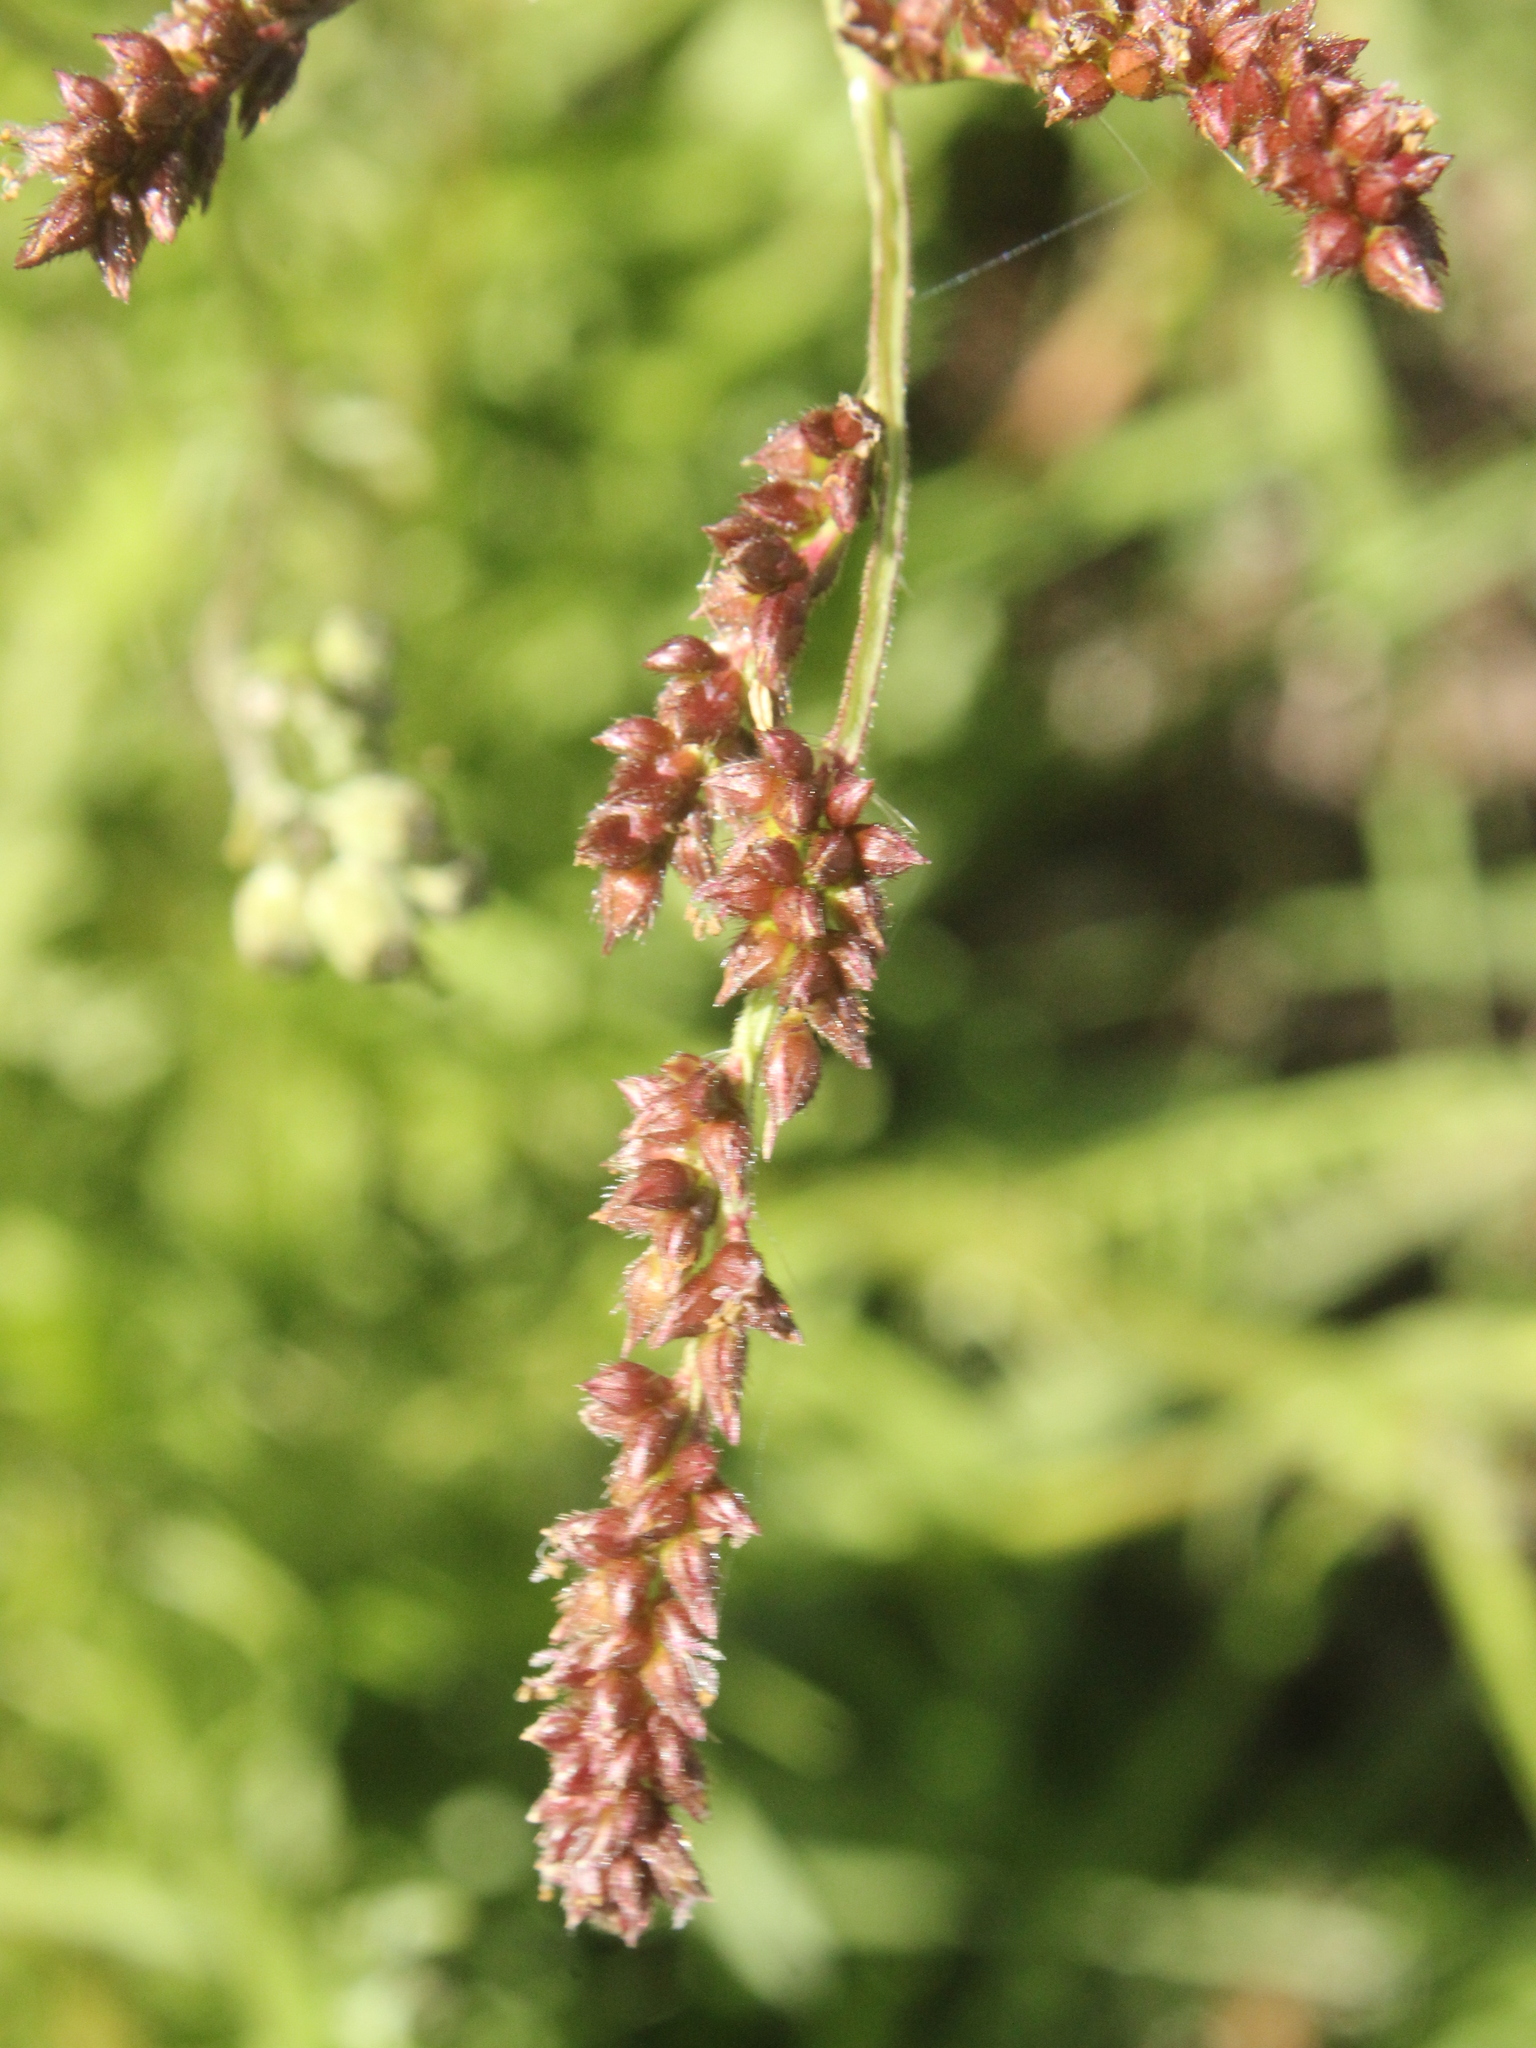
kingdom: Plantae
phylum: Tracheophyta
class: Liliopsida
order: Poales
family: Poaceae
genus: Digitaria
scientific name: Digitaria sanguinalis
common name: Hairy crabgrass
